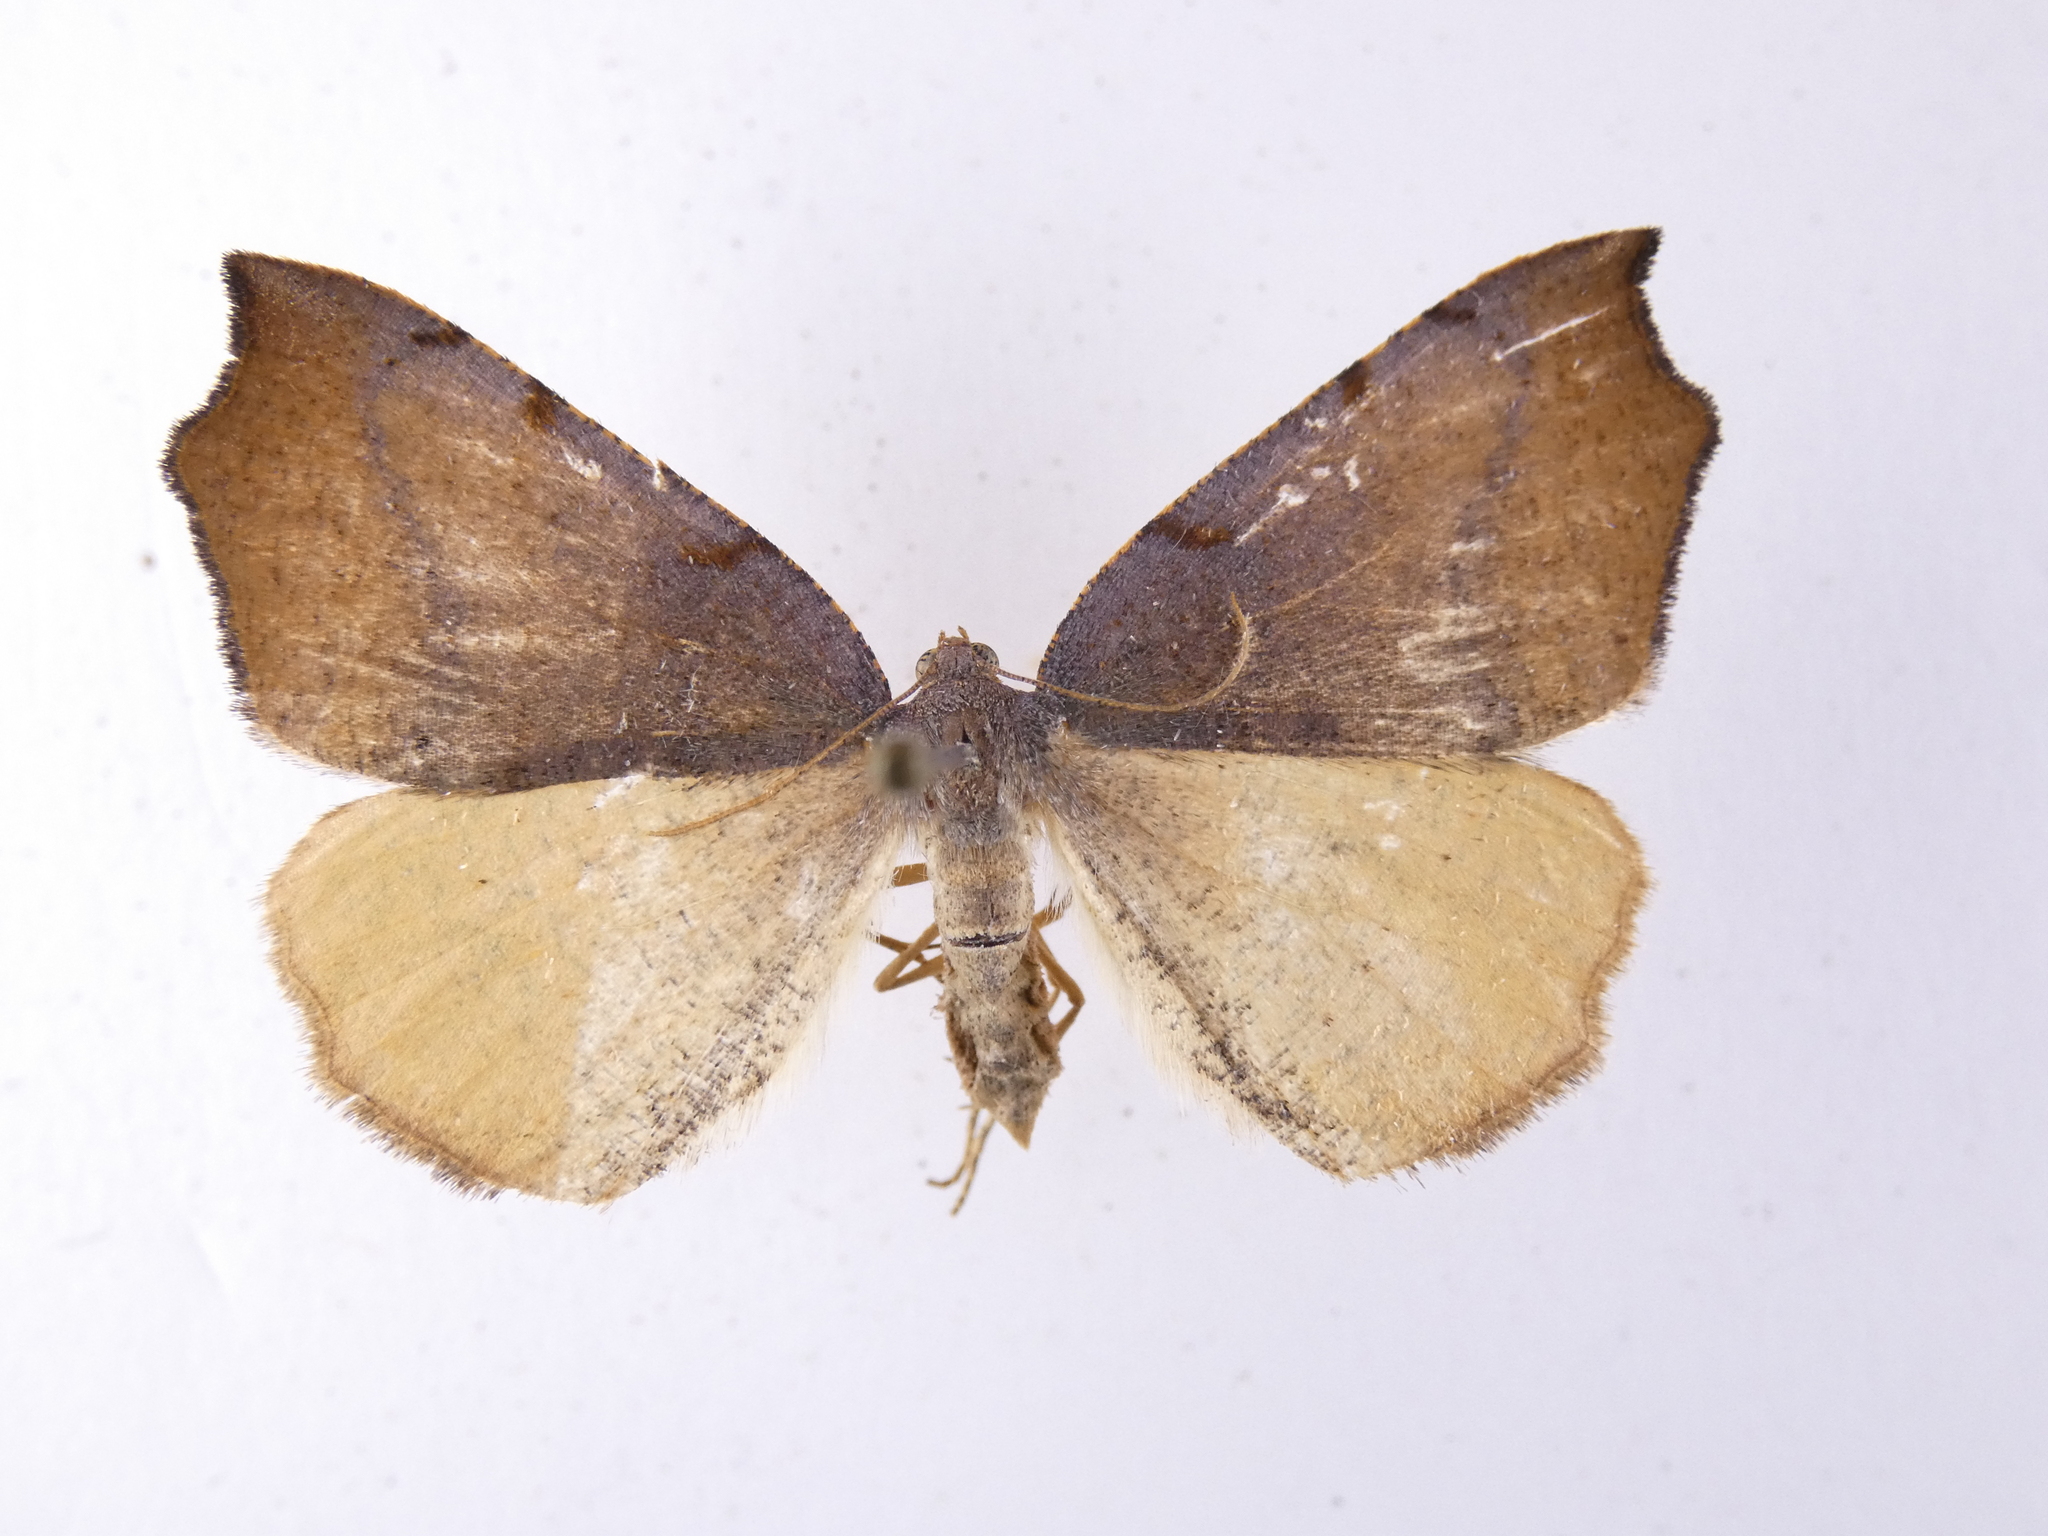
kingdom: Animalia
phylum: Arthropoda
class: Insecta
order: Lepidoptera
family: Geometridae
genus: Sestra
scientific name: Sestra flexata
